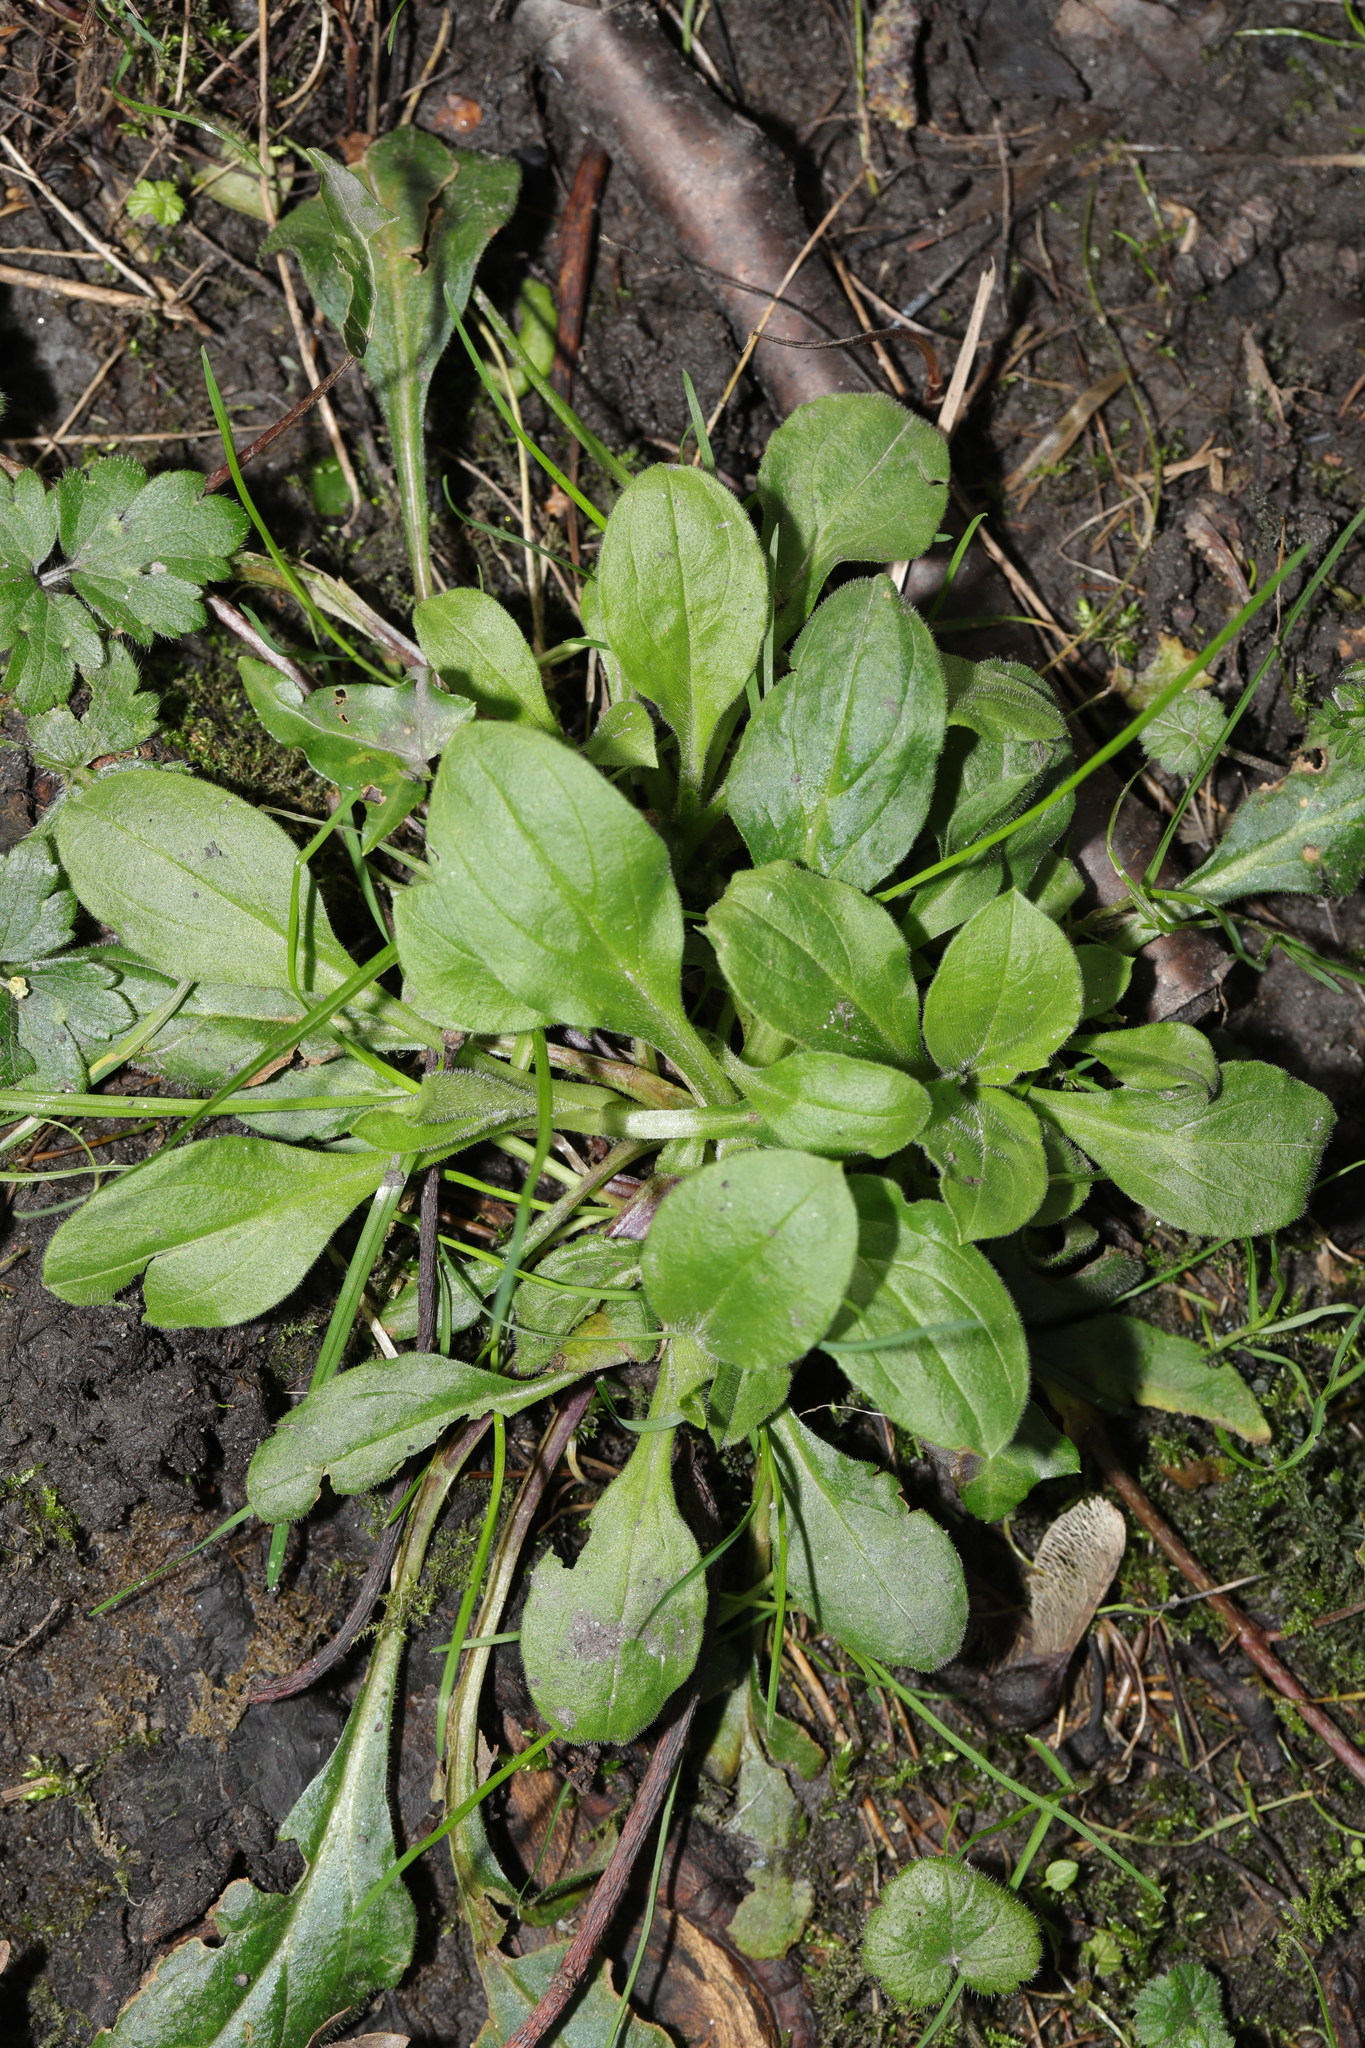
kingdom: Plantae
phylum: Tracheophyta
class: Magnoliopsida
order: Asterales
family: Asteraceae
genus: Bellis
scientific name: Bellis perennis
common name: Lawndaisy
